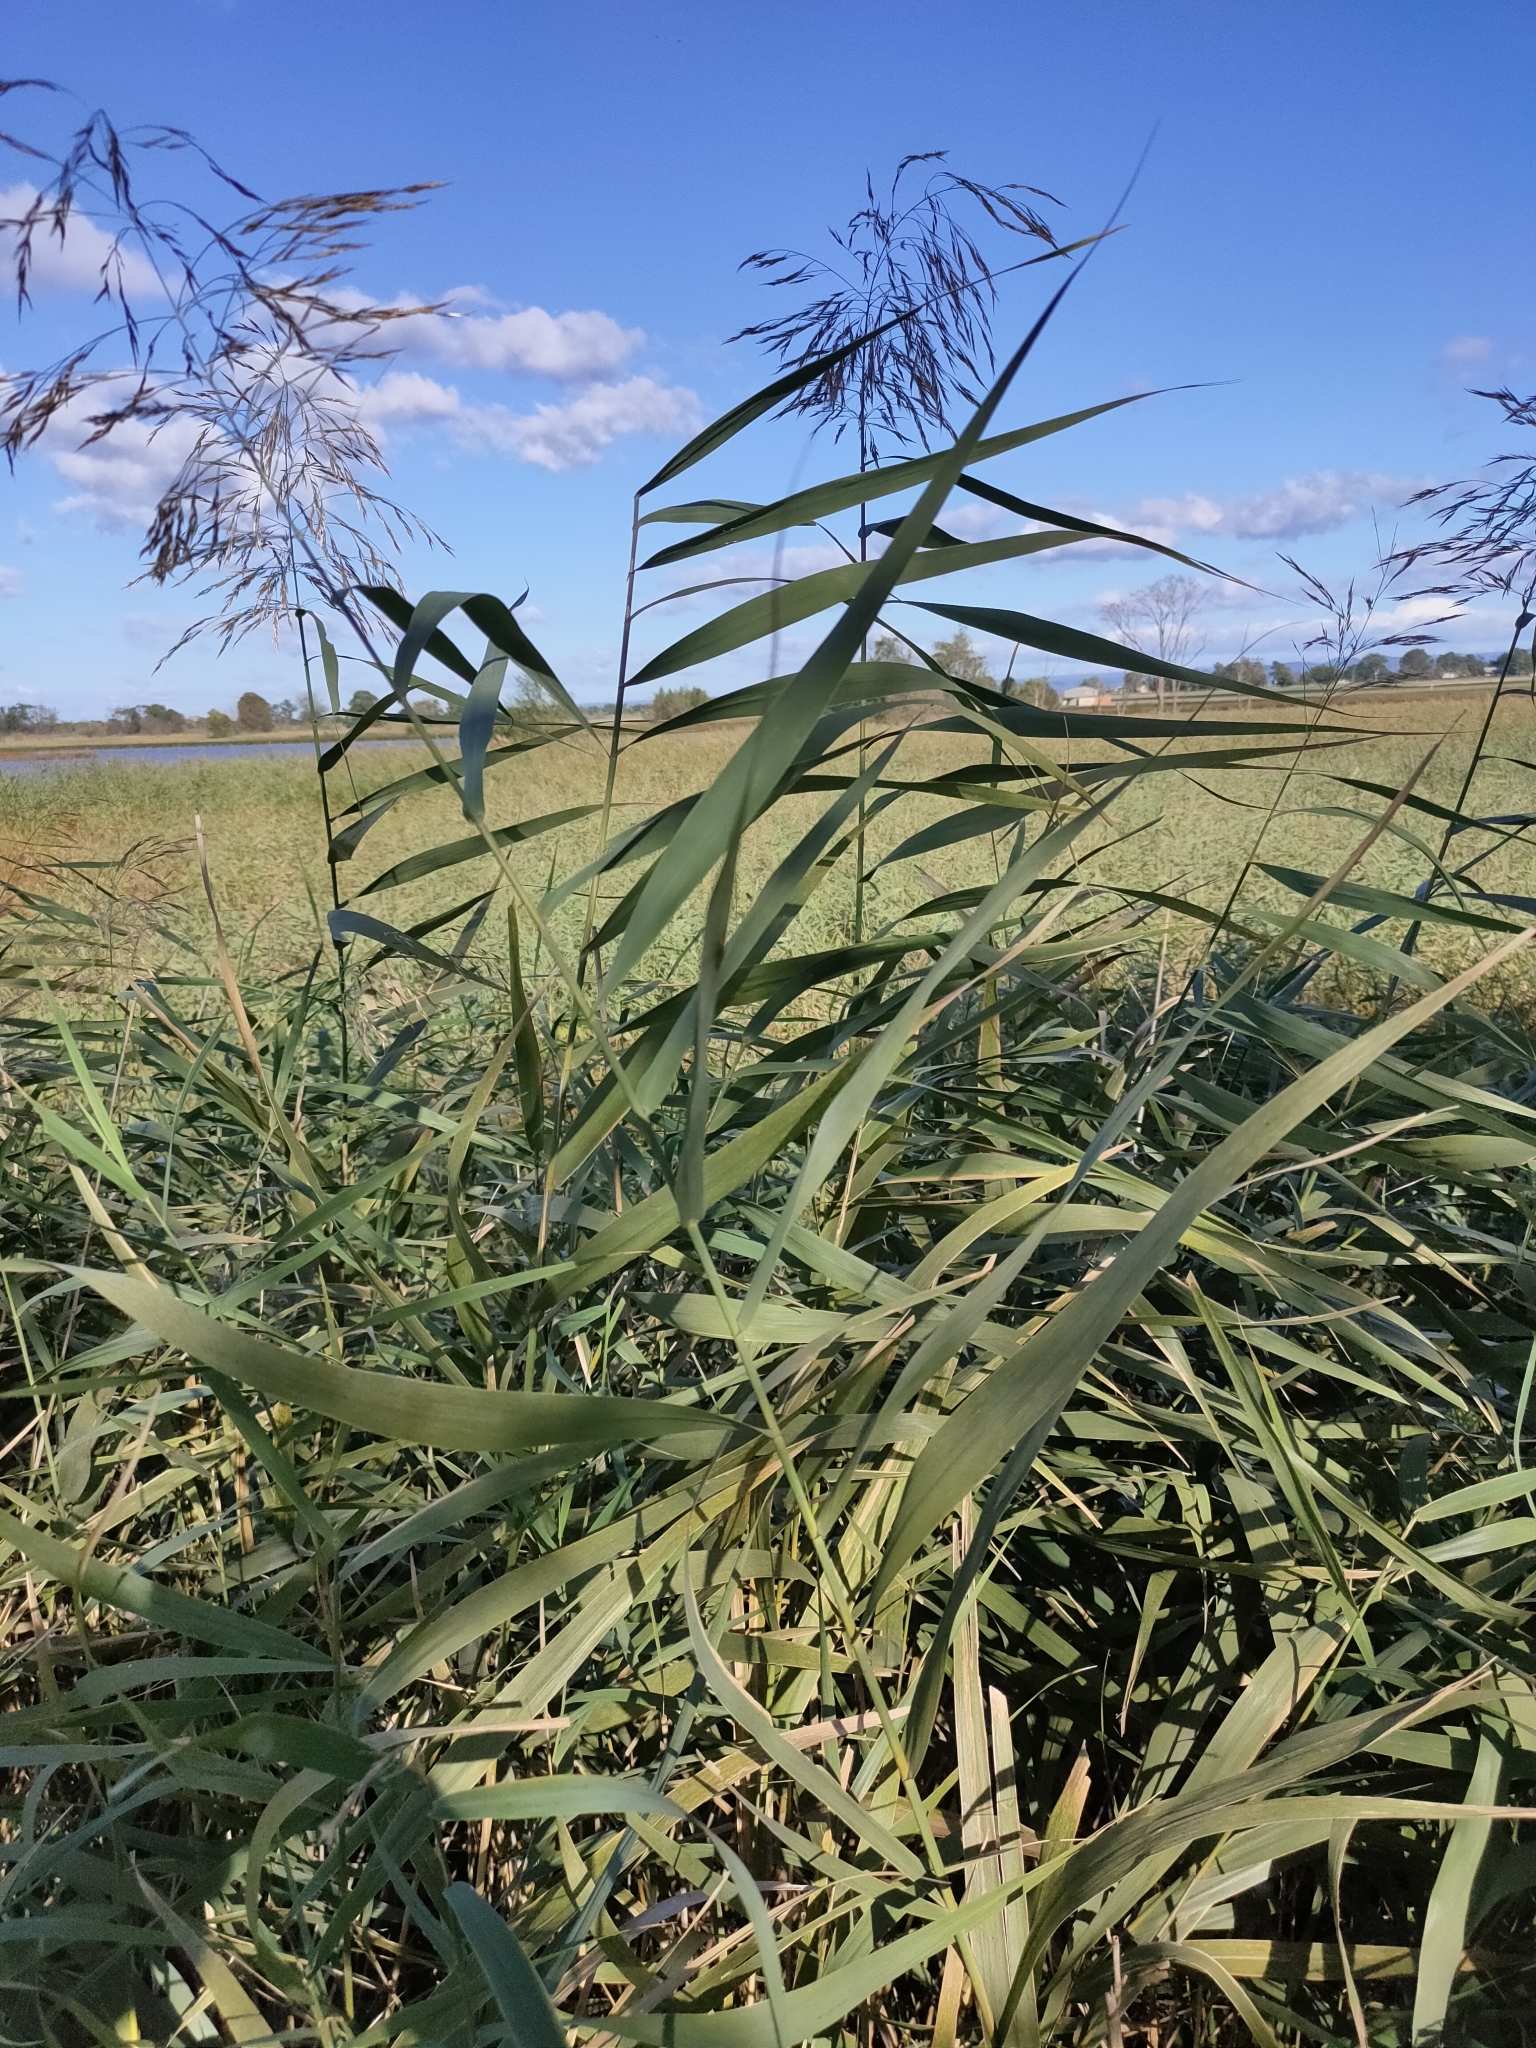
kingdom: Plantae
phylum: Tracheophyta
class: Liliopsida
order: Poales
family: Poaceae
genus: Phragmites
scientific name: Phragmites australis
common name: Common reed
